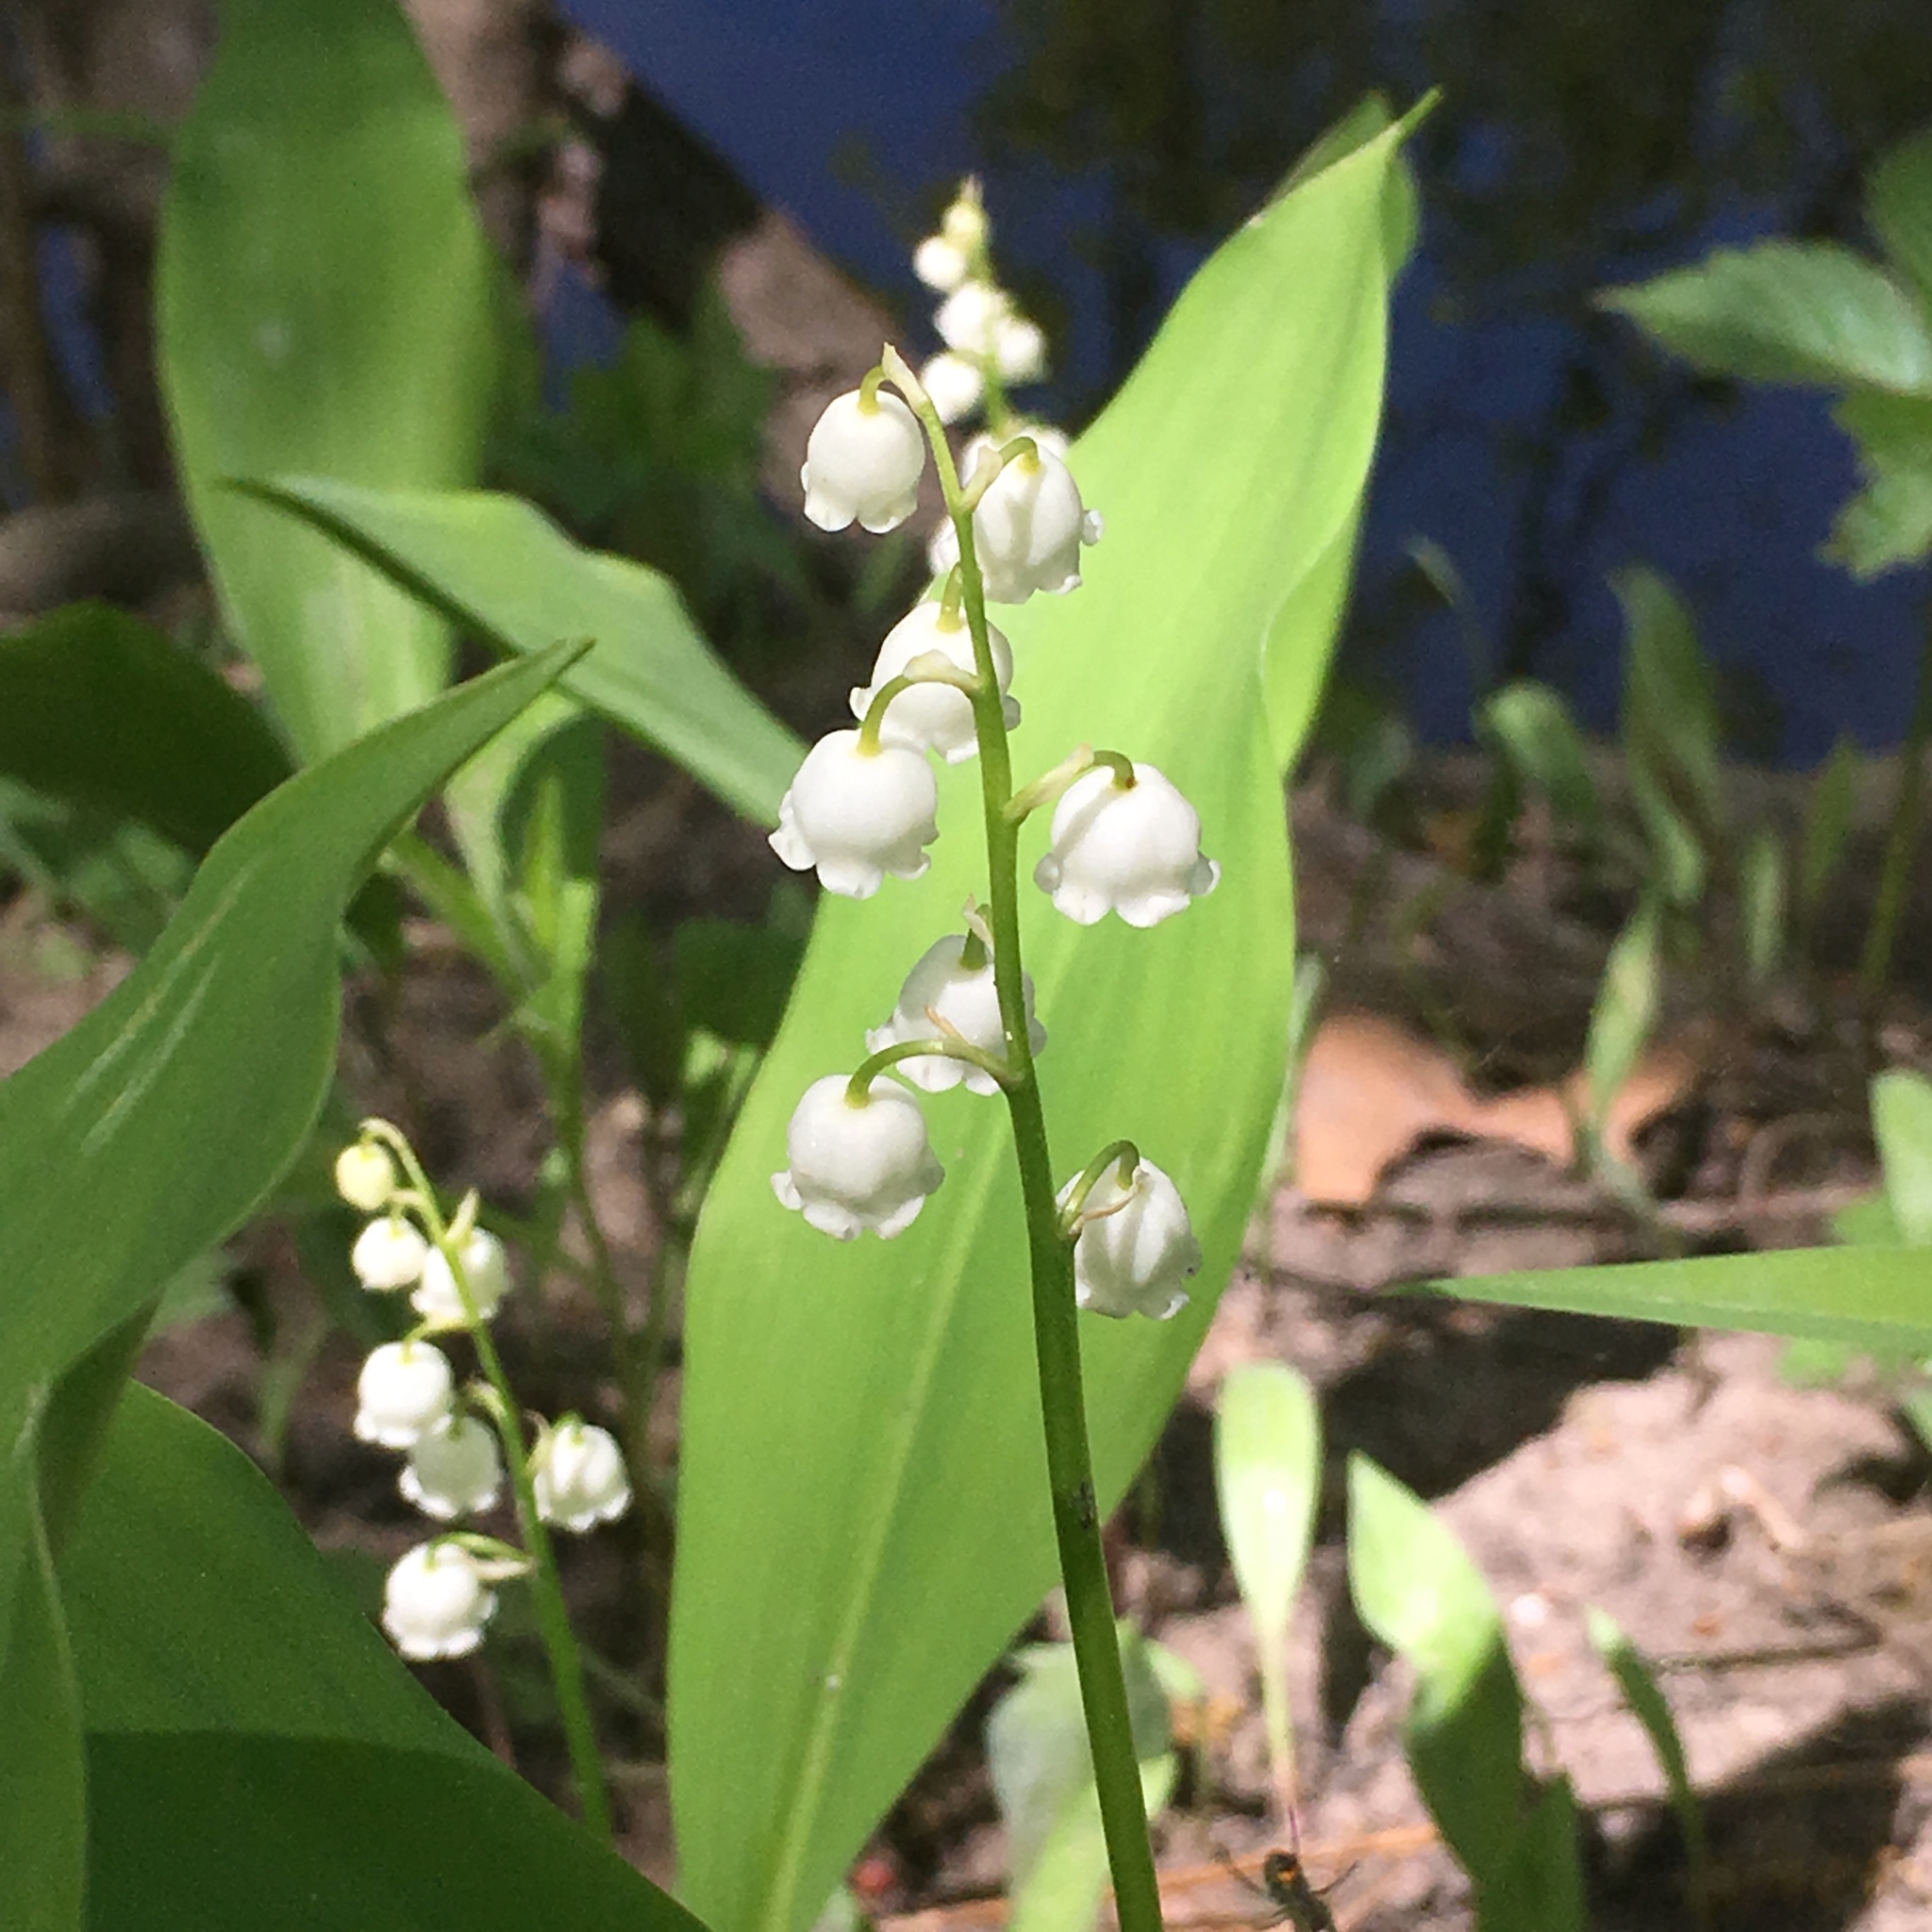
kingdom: Plantae
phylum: Tracheophyta
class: Liliopsida
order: Asparagales
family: Asparagaceae
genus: Convallaria
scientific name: Convallaria majalis
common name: Lily-of-the-valley
